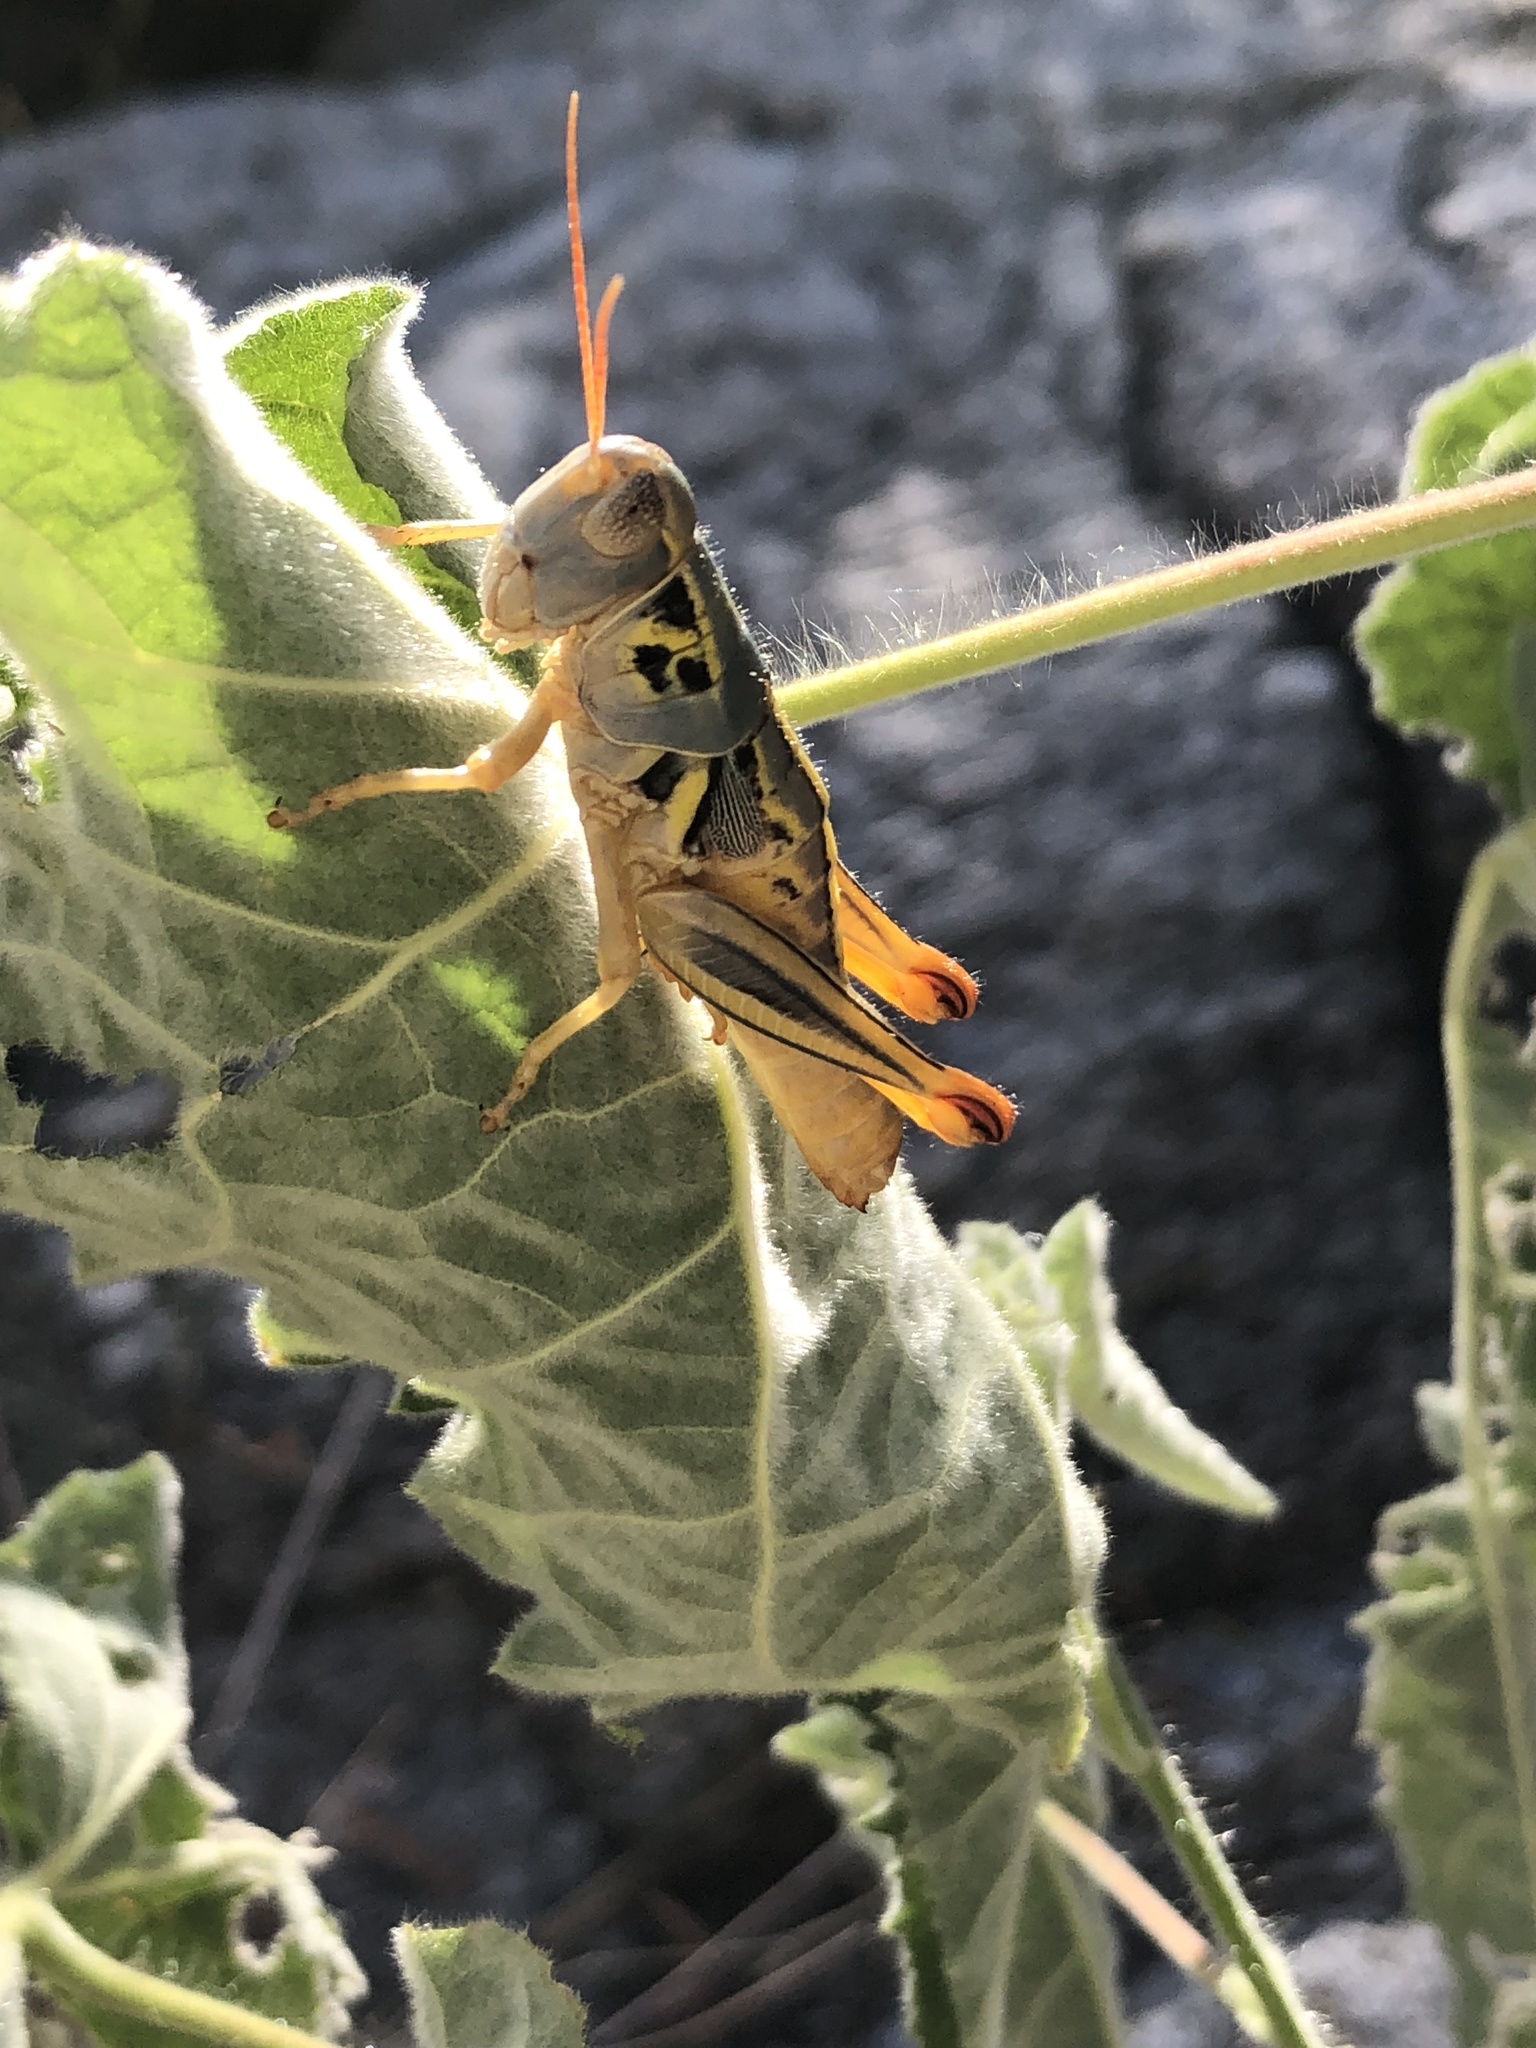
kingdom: Animalia
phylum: Arthropoda
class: Insecta
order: Orthoptera
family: Acrididae
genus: Barytettix
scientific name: Barytettix humphreysii
